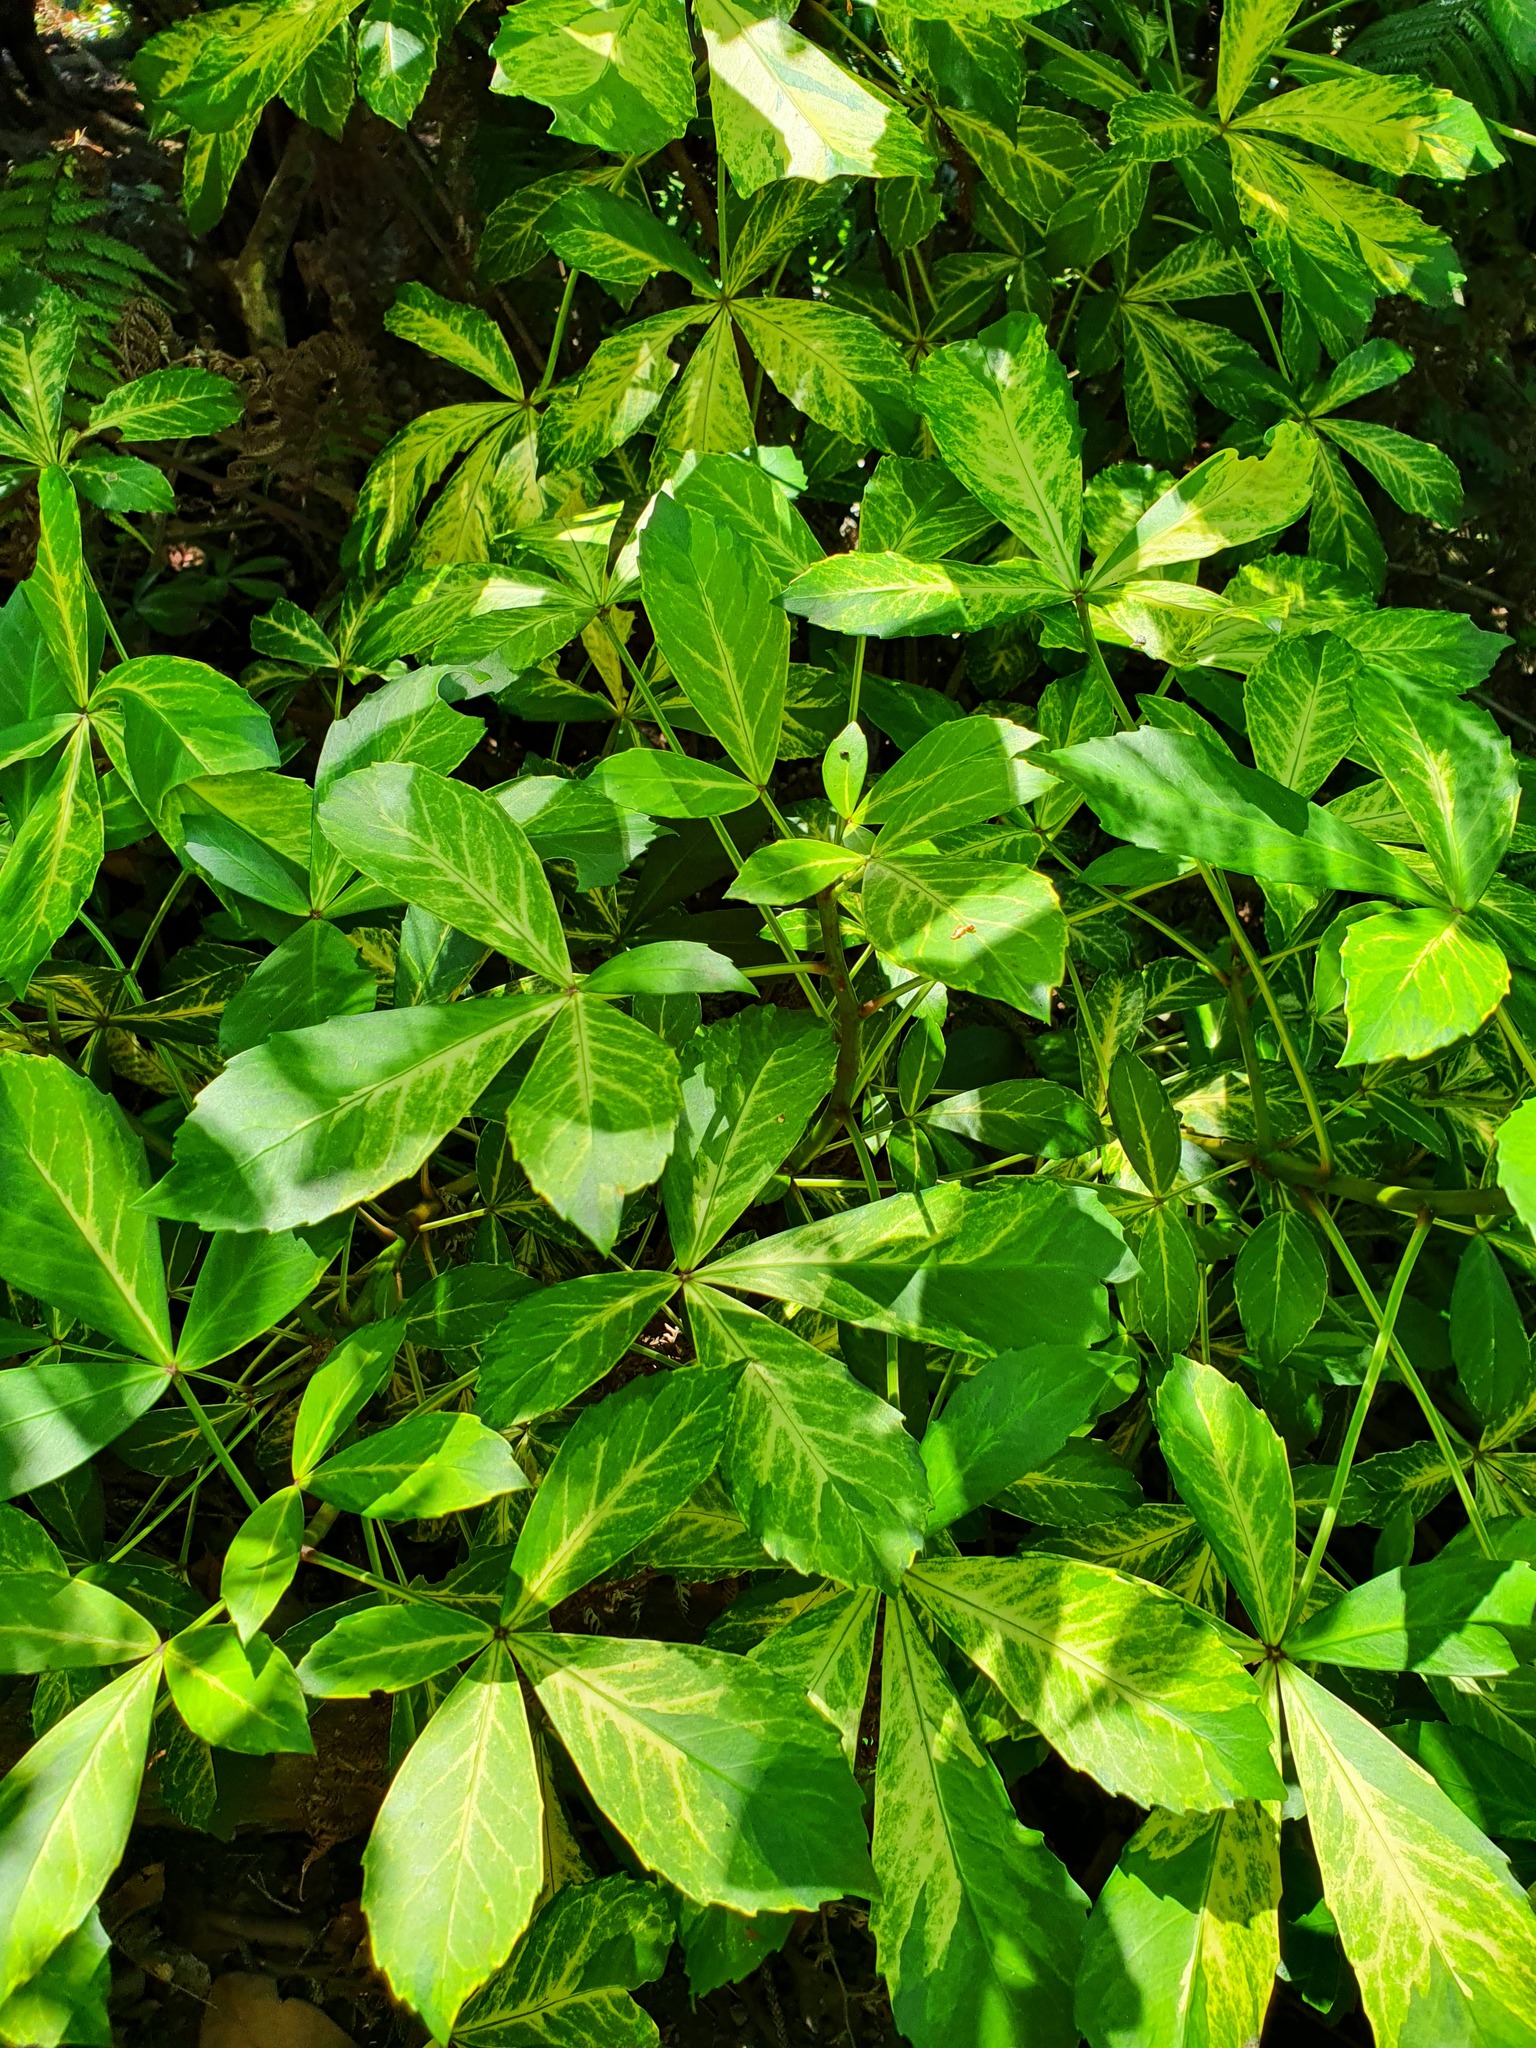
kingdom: Plantae
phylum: Tracheophyta
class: Magnoliopsida
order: Apiales
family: Araliaceae
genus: Pseudopanax
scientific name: Pseudopanax lessonii
